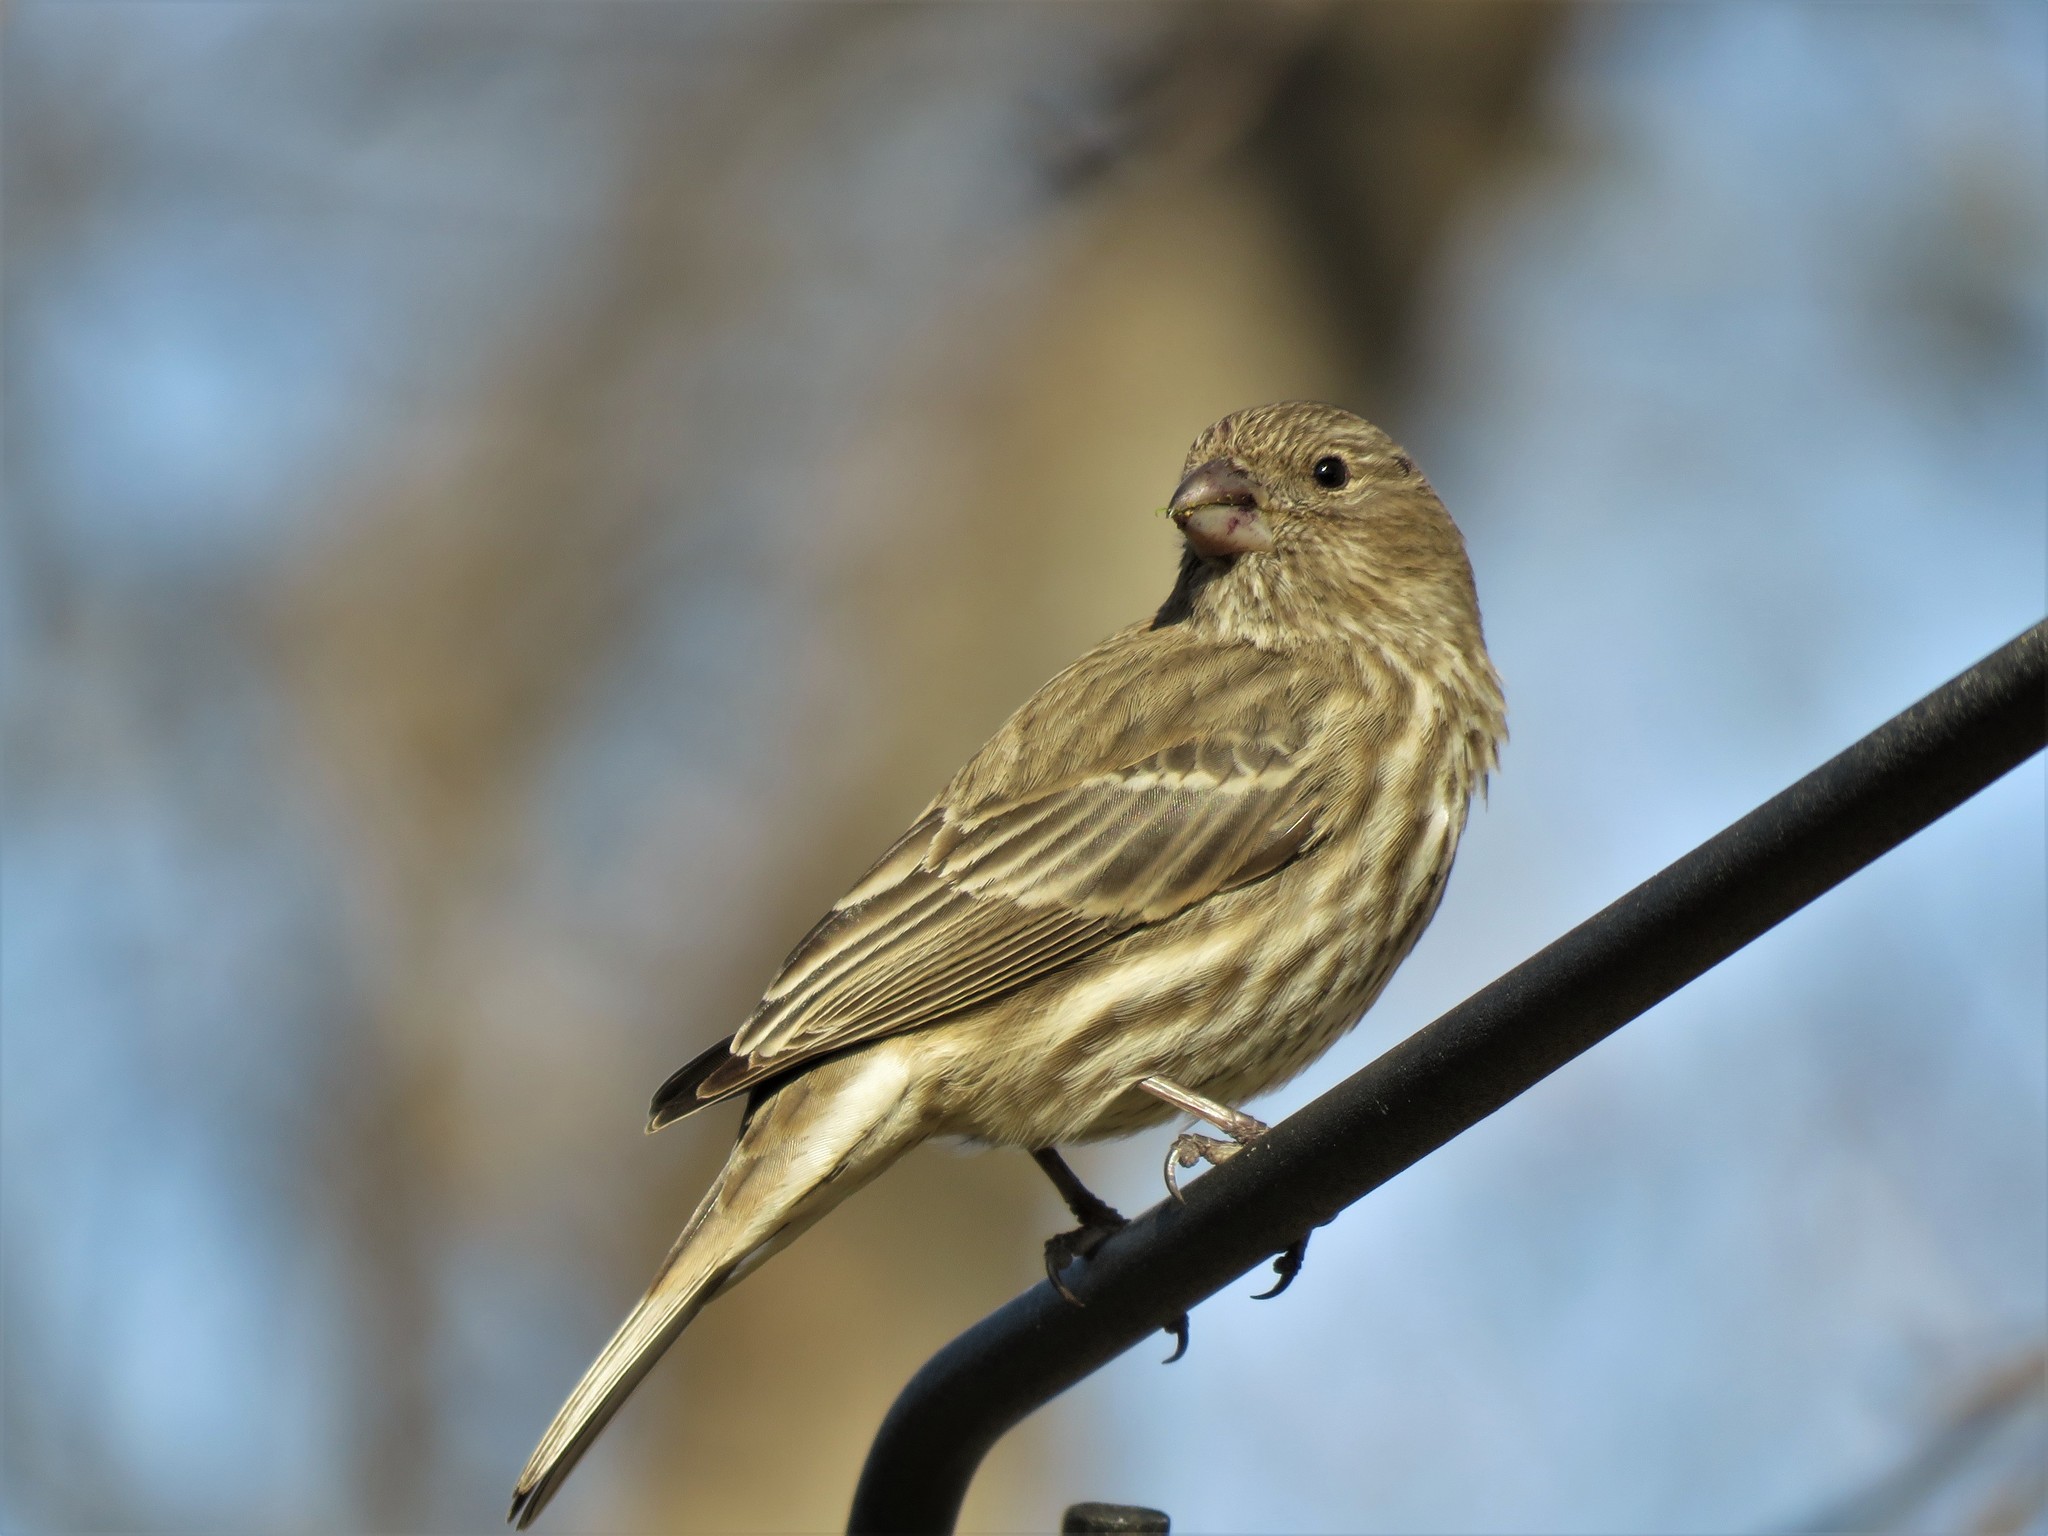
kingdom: Animalia
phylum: Chordata
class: Aves
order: Passeriformes
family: Fringillidae
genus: Haemorhous
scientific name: Haemorhous mexicanus
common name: House finch
